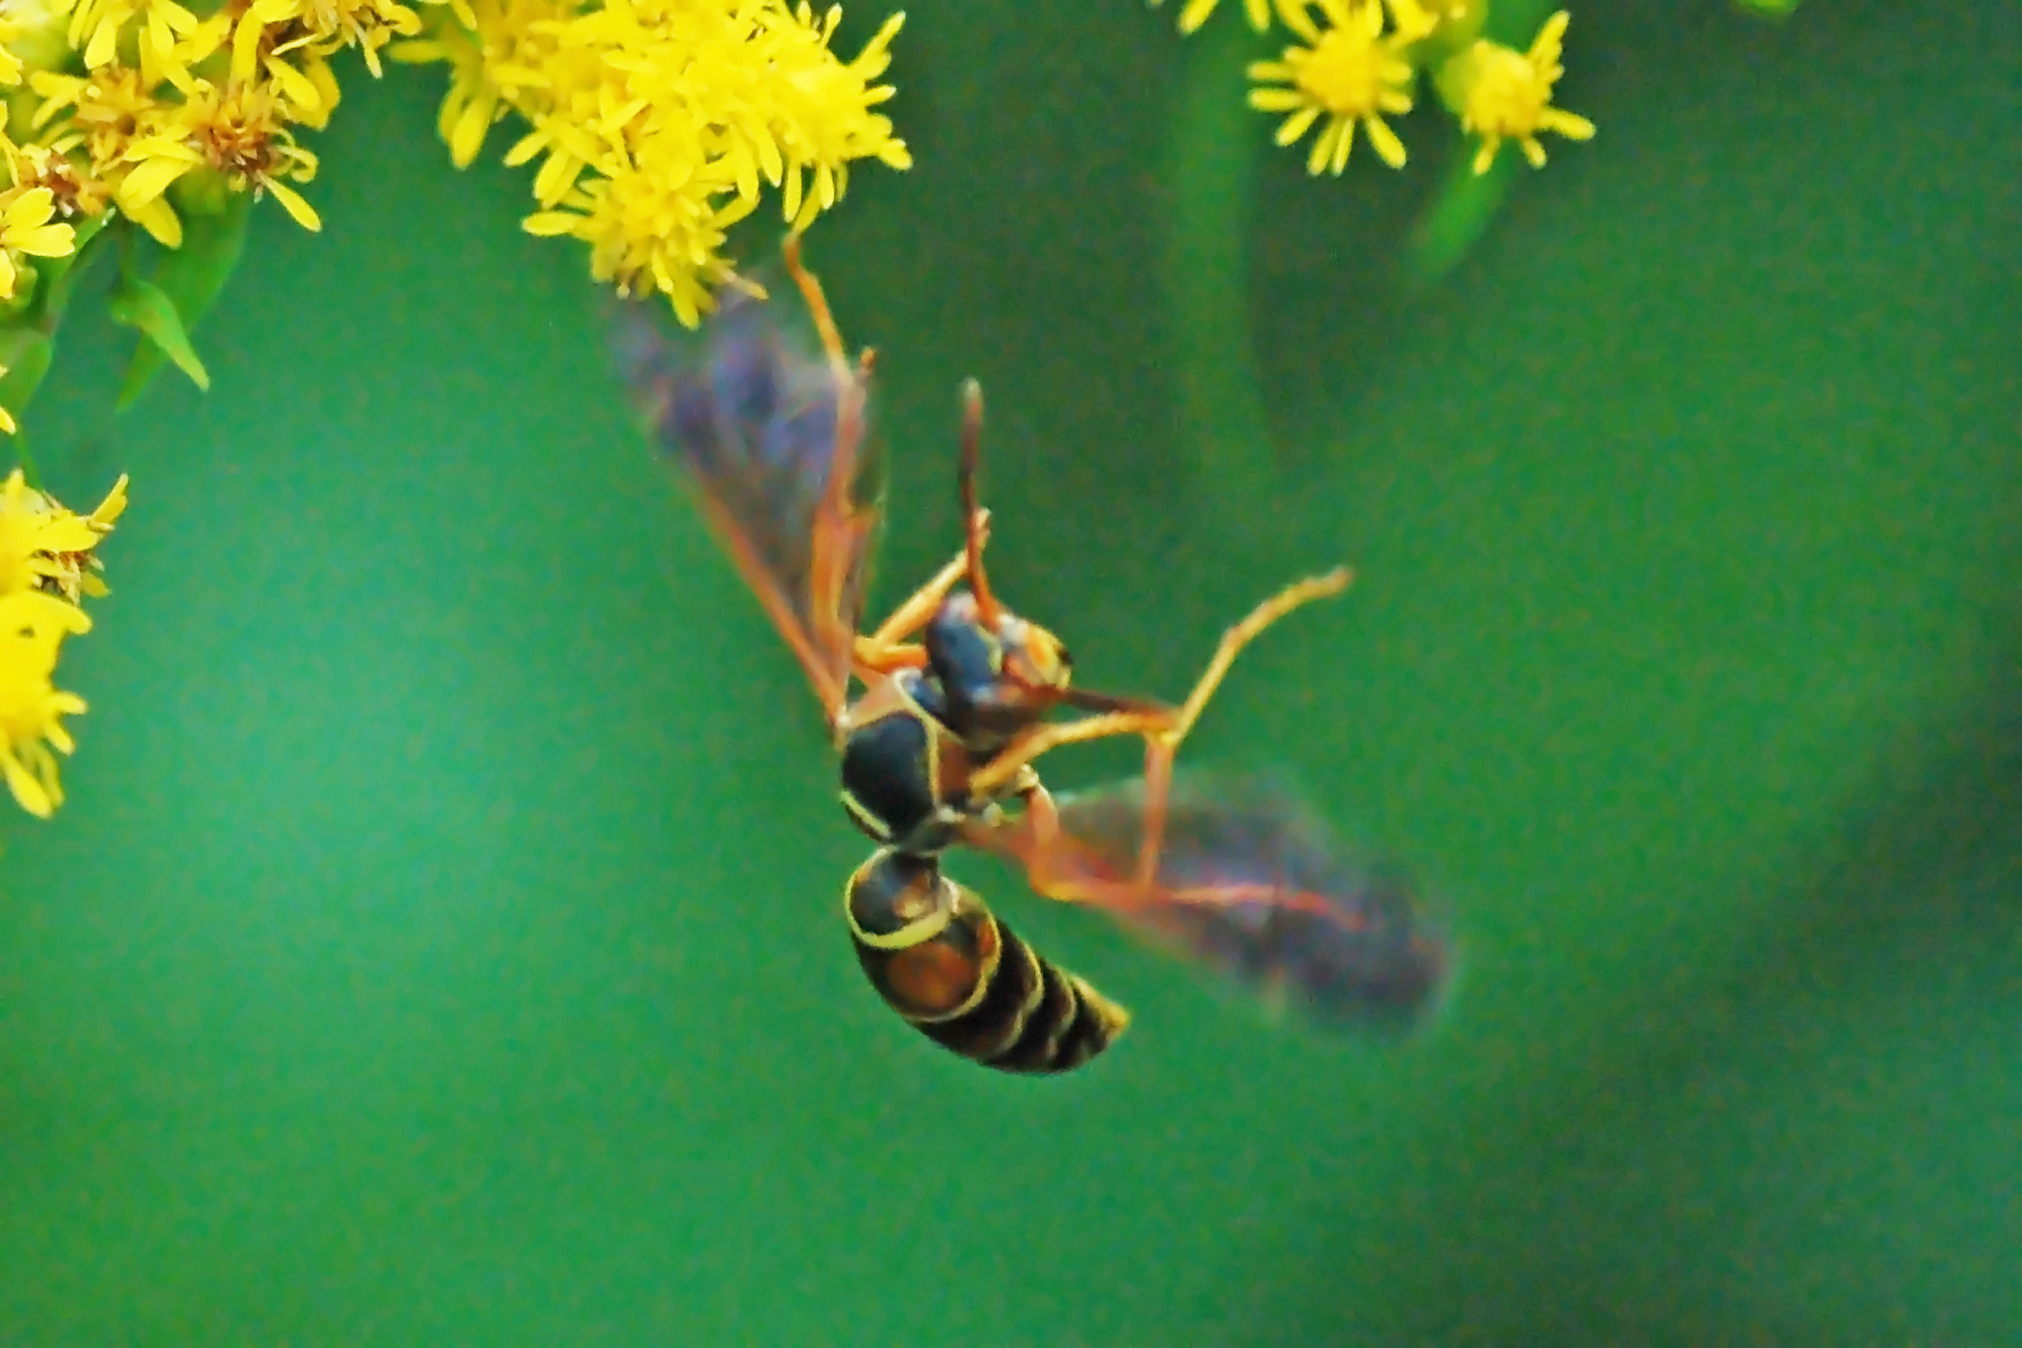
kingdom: Animalia
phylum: Arthropoda
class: Insecta
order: Hymenoptera
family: Eumenidae
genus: Polistes
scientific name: Polistes fuscatus
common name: Dark paper wasp
